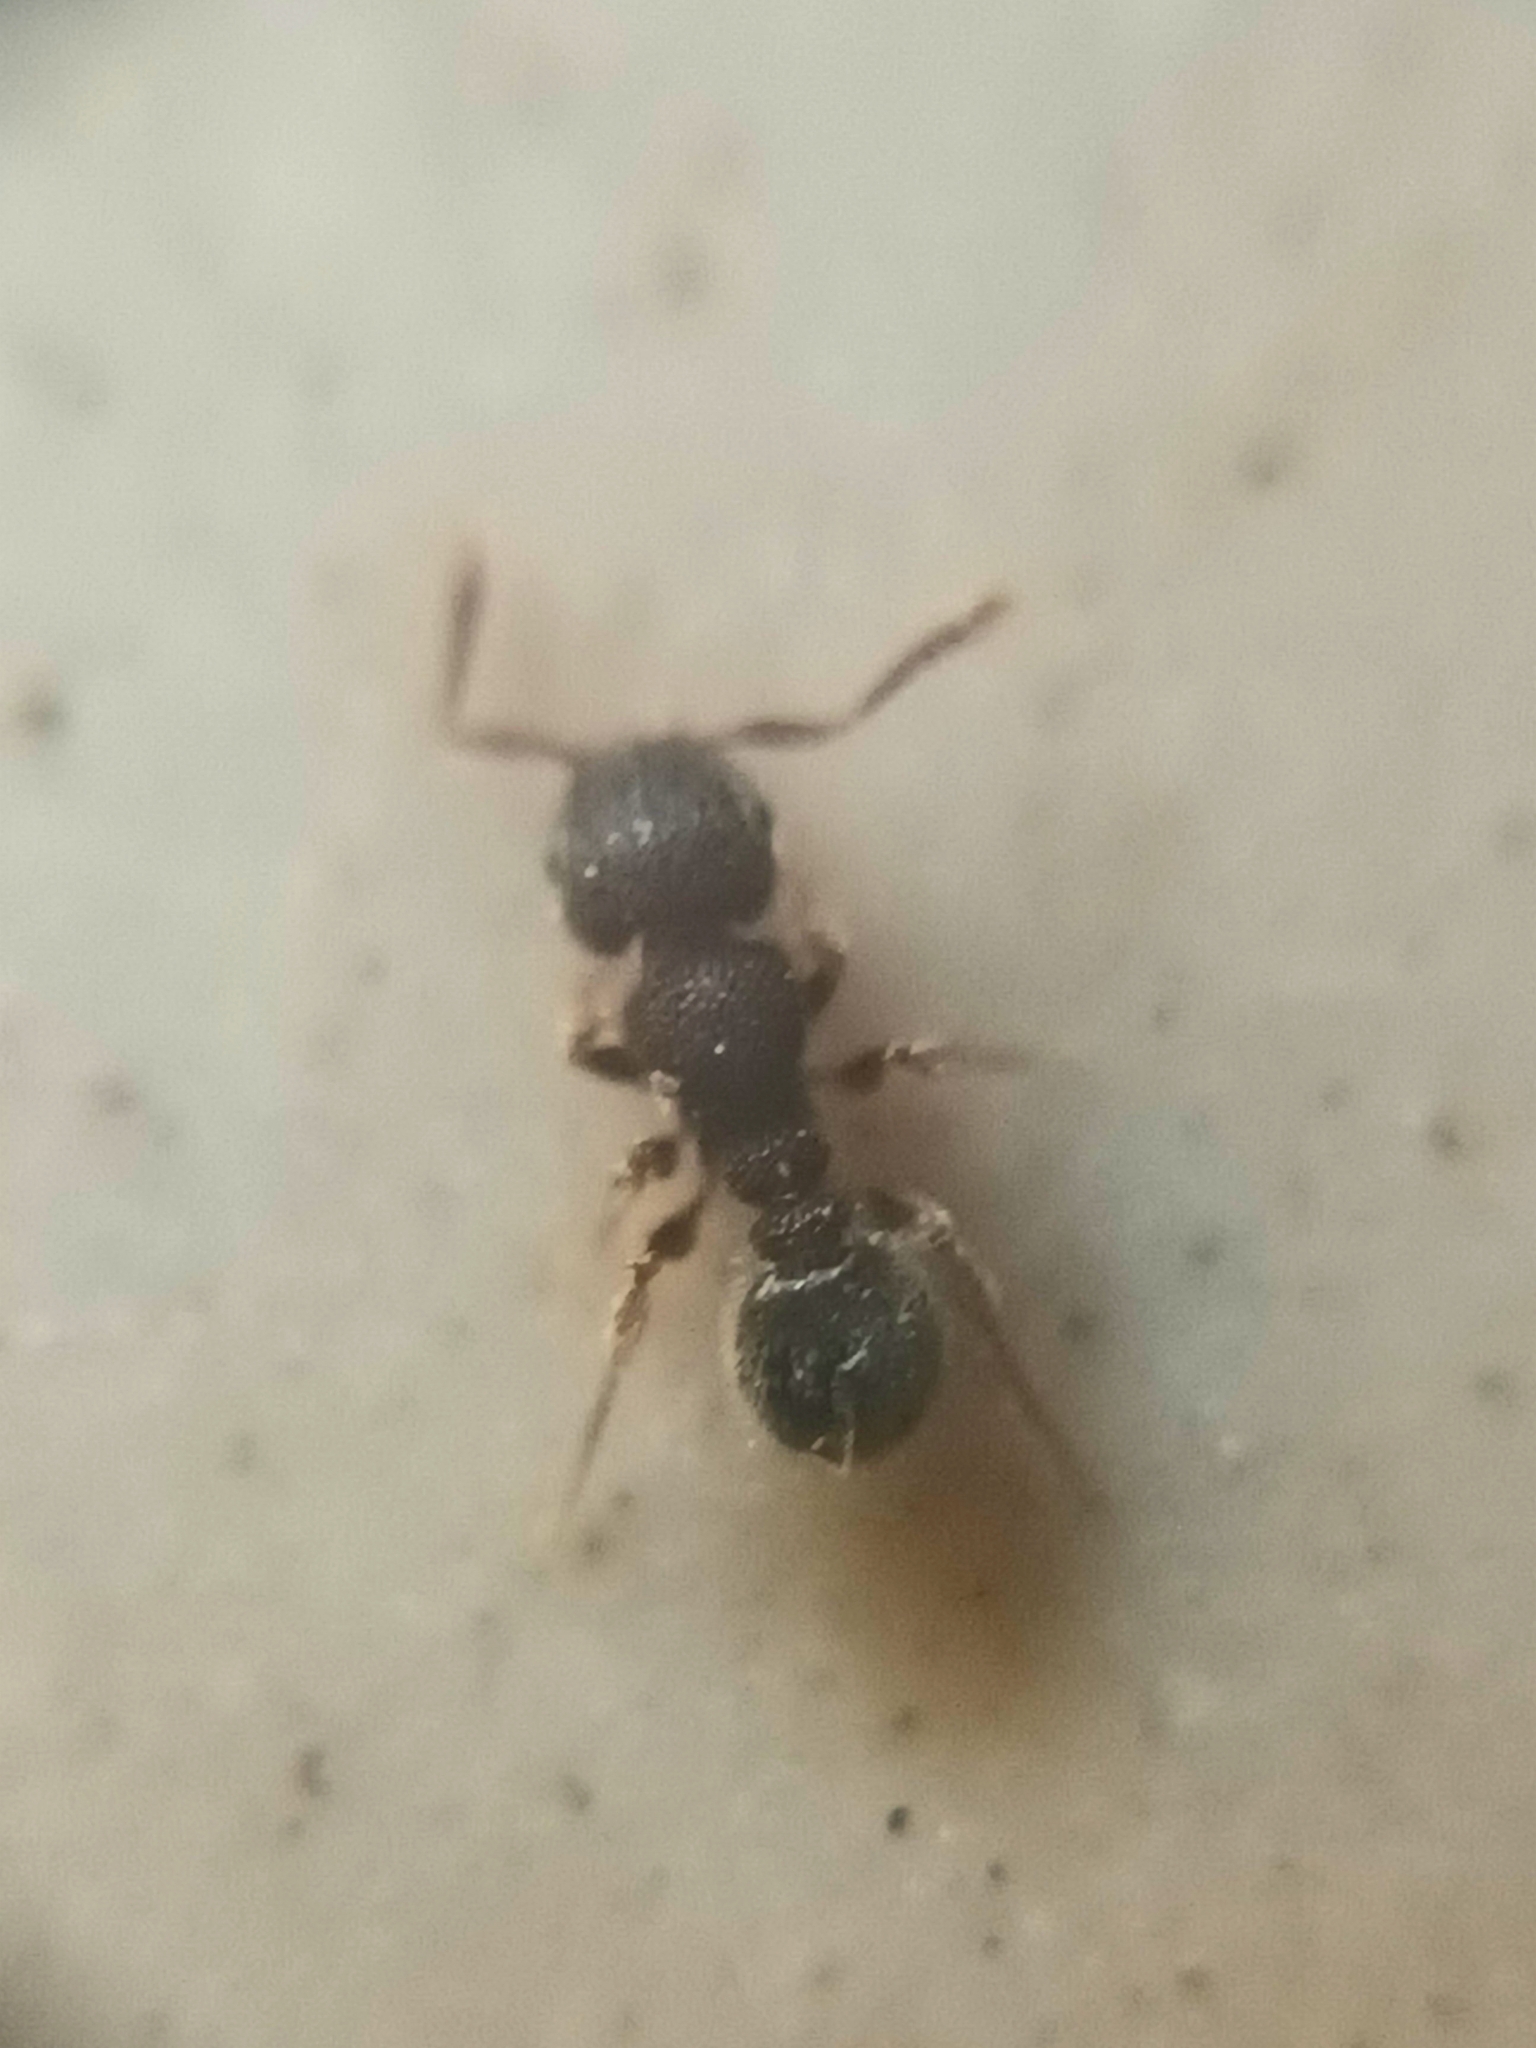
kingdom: Animalia
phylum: Arthropoda
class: Insecta
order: Hymenoptera
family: Formicidae
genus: Tetramorium
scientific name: Tetramorium walshi
